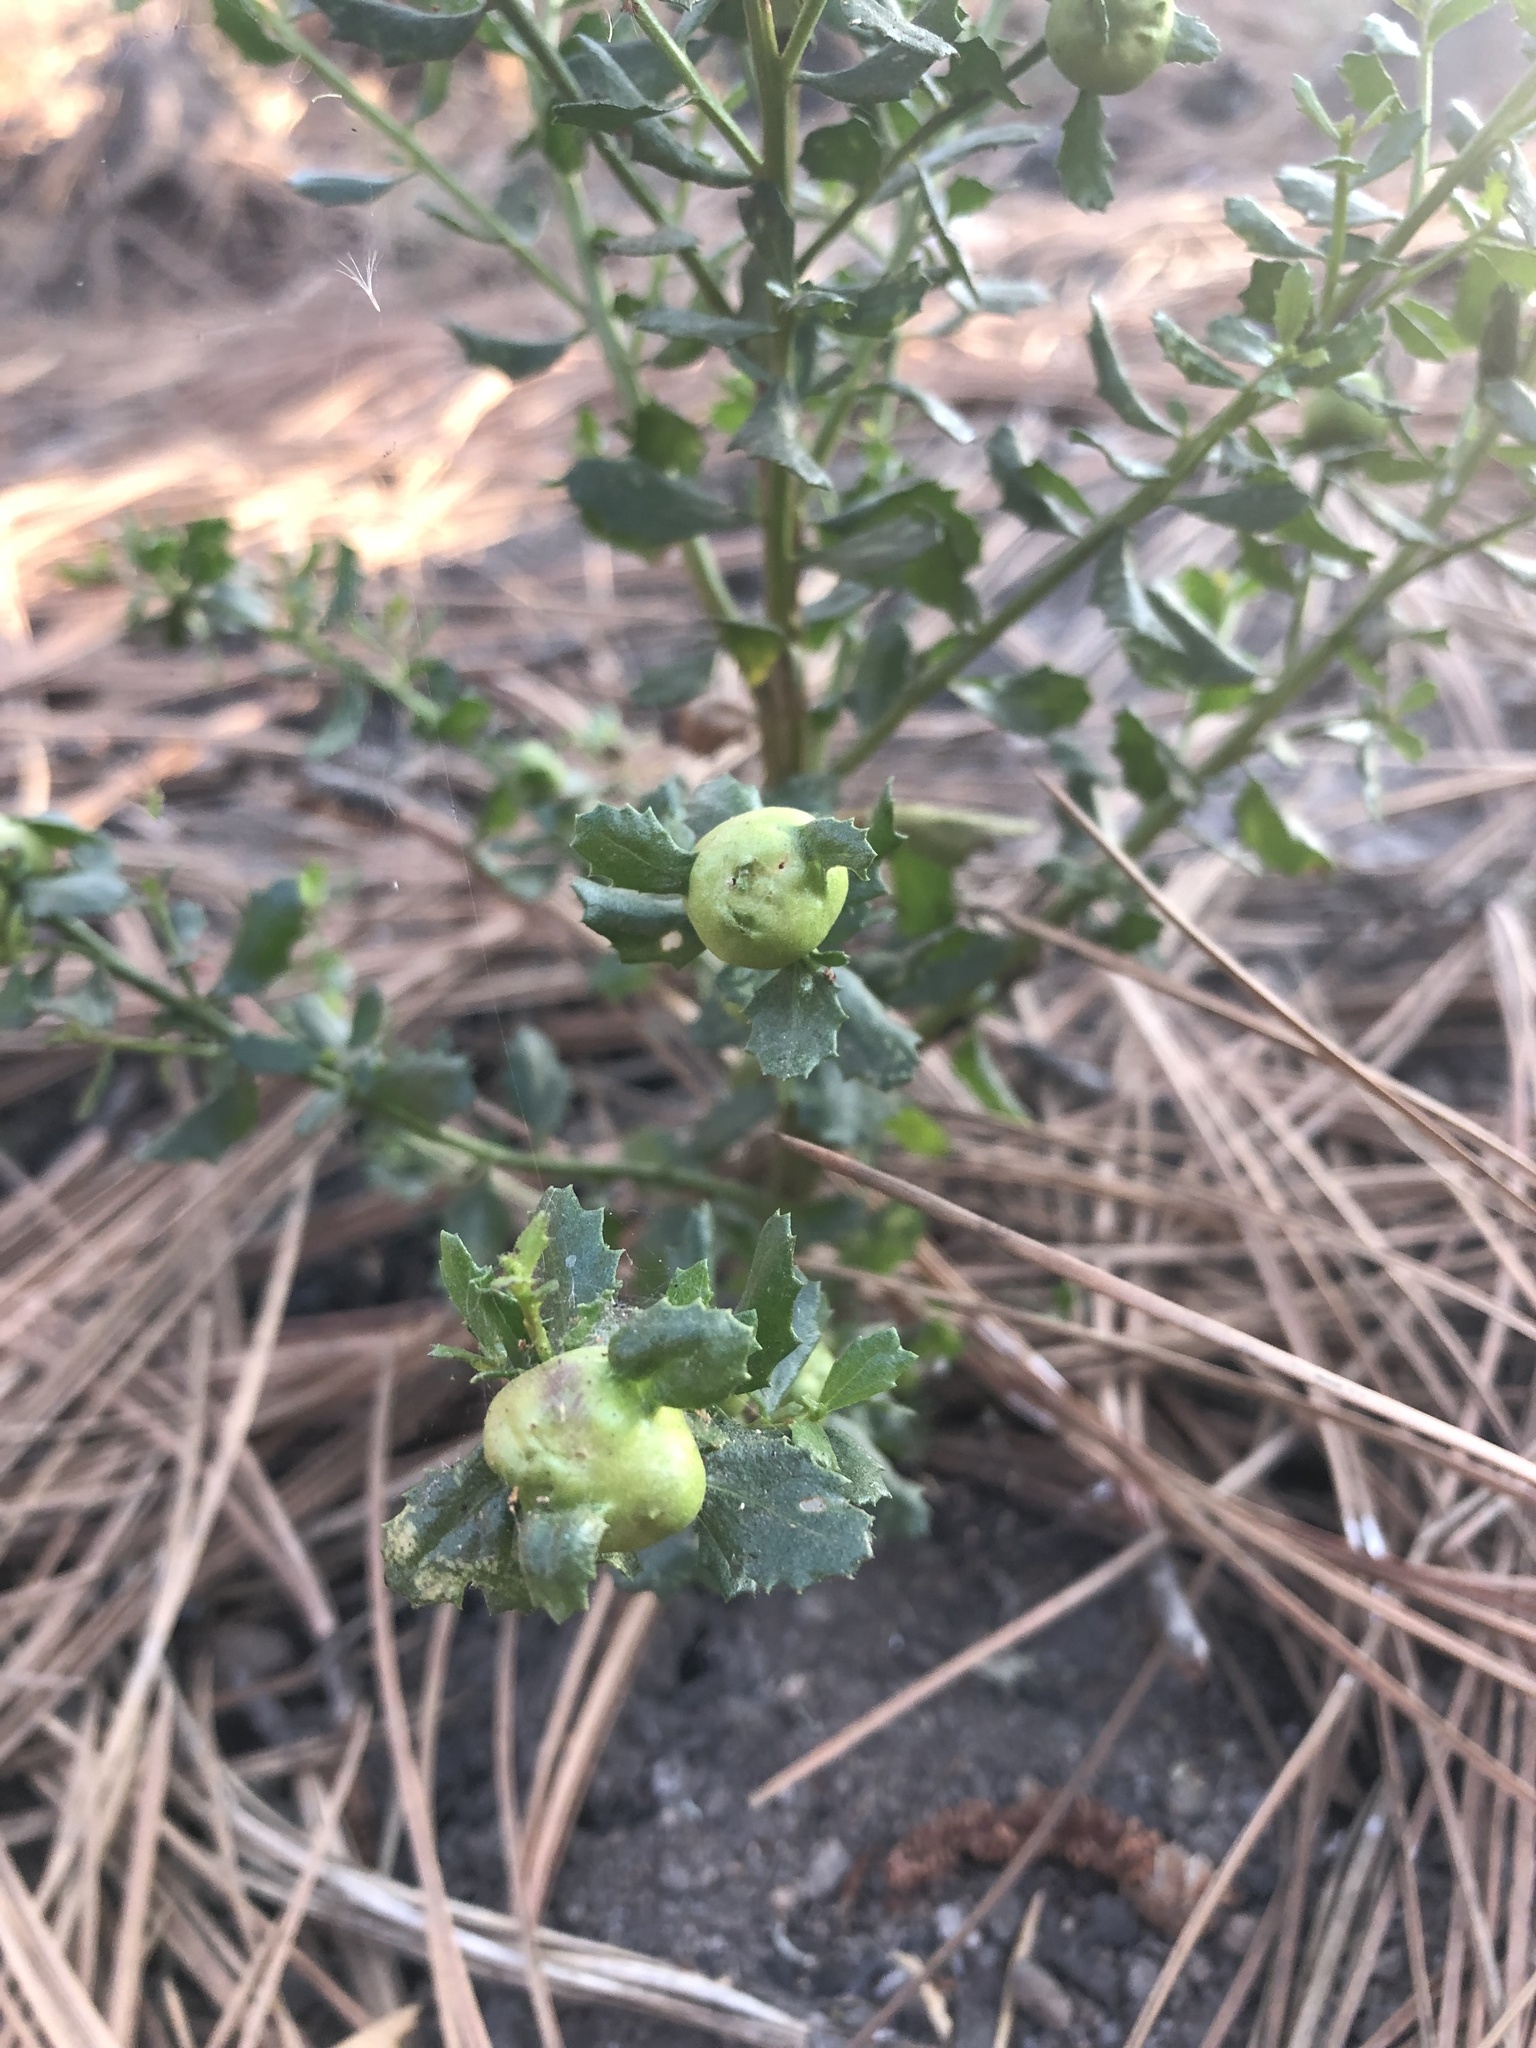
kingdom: Animalia
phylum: Arthropoda
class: Insecta
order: Diptera
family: Cecidomyiidae
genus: Rhopalomyia
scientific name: Rhopalomyia californica
